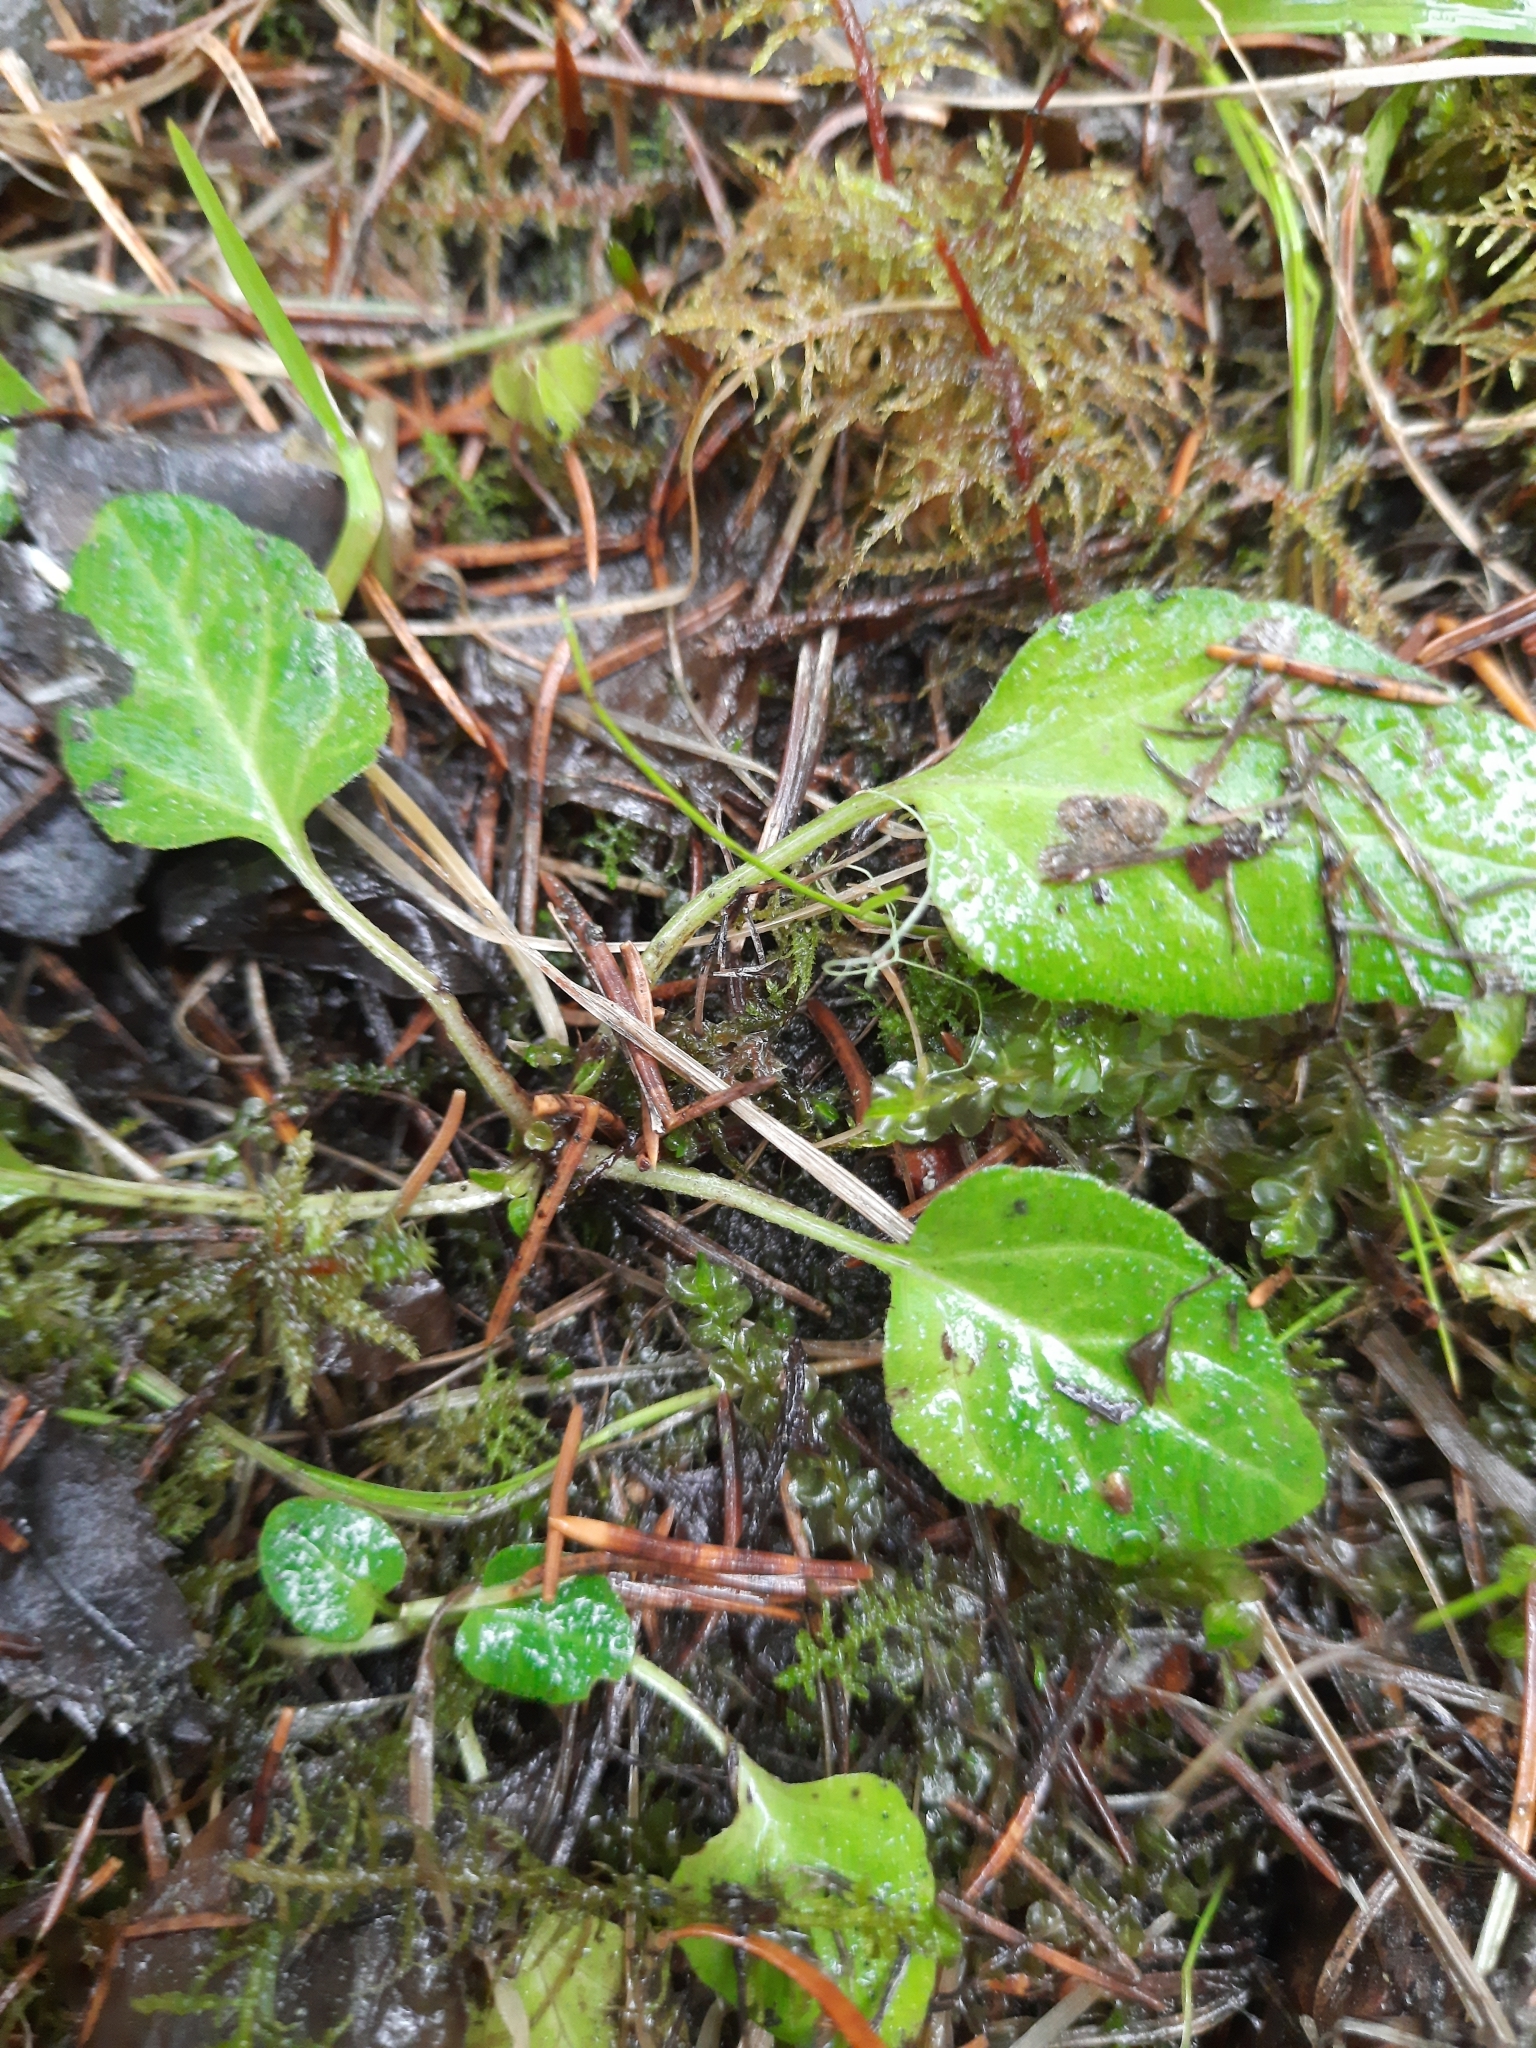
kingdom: Plantae
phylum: Tracheophyta
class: Magnoliopsida
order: Lamiales
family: Lamiaceae
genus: Prunella
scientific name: Prunella vulgaris
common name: Heal-all
